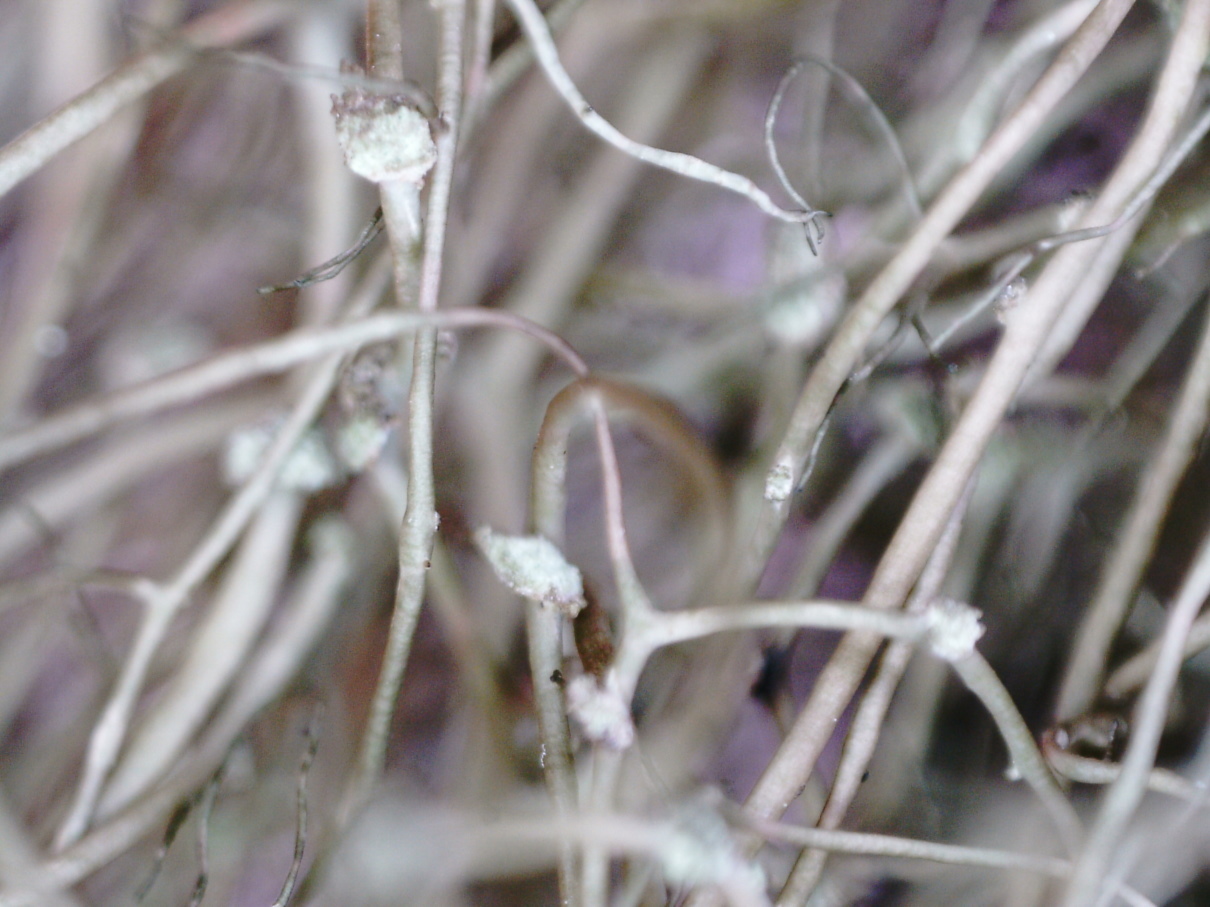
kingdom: Fungi
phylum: Ascomycota
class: Lecanoromycetes
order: Lecanorales
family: Parmeliaceae
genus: Bryoria
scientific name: Bryoria fuscescens
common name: Pale-footed horsehair lichen
